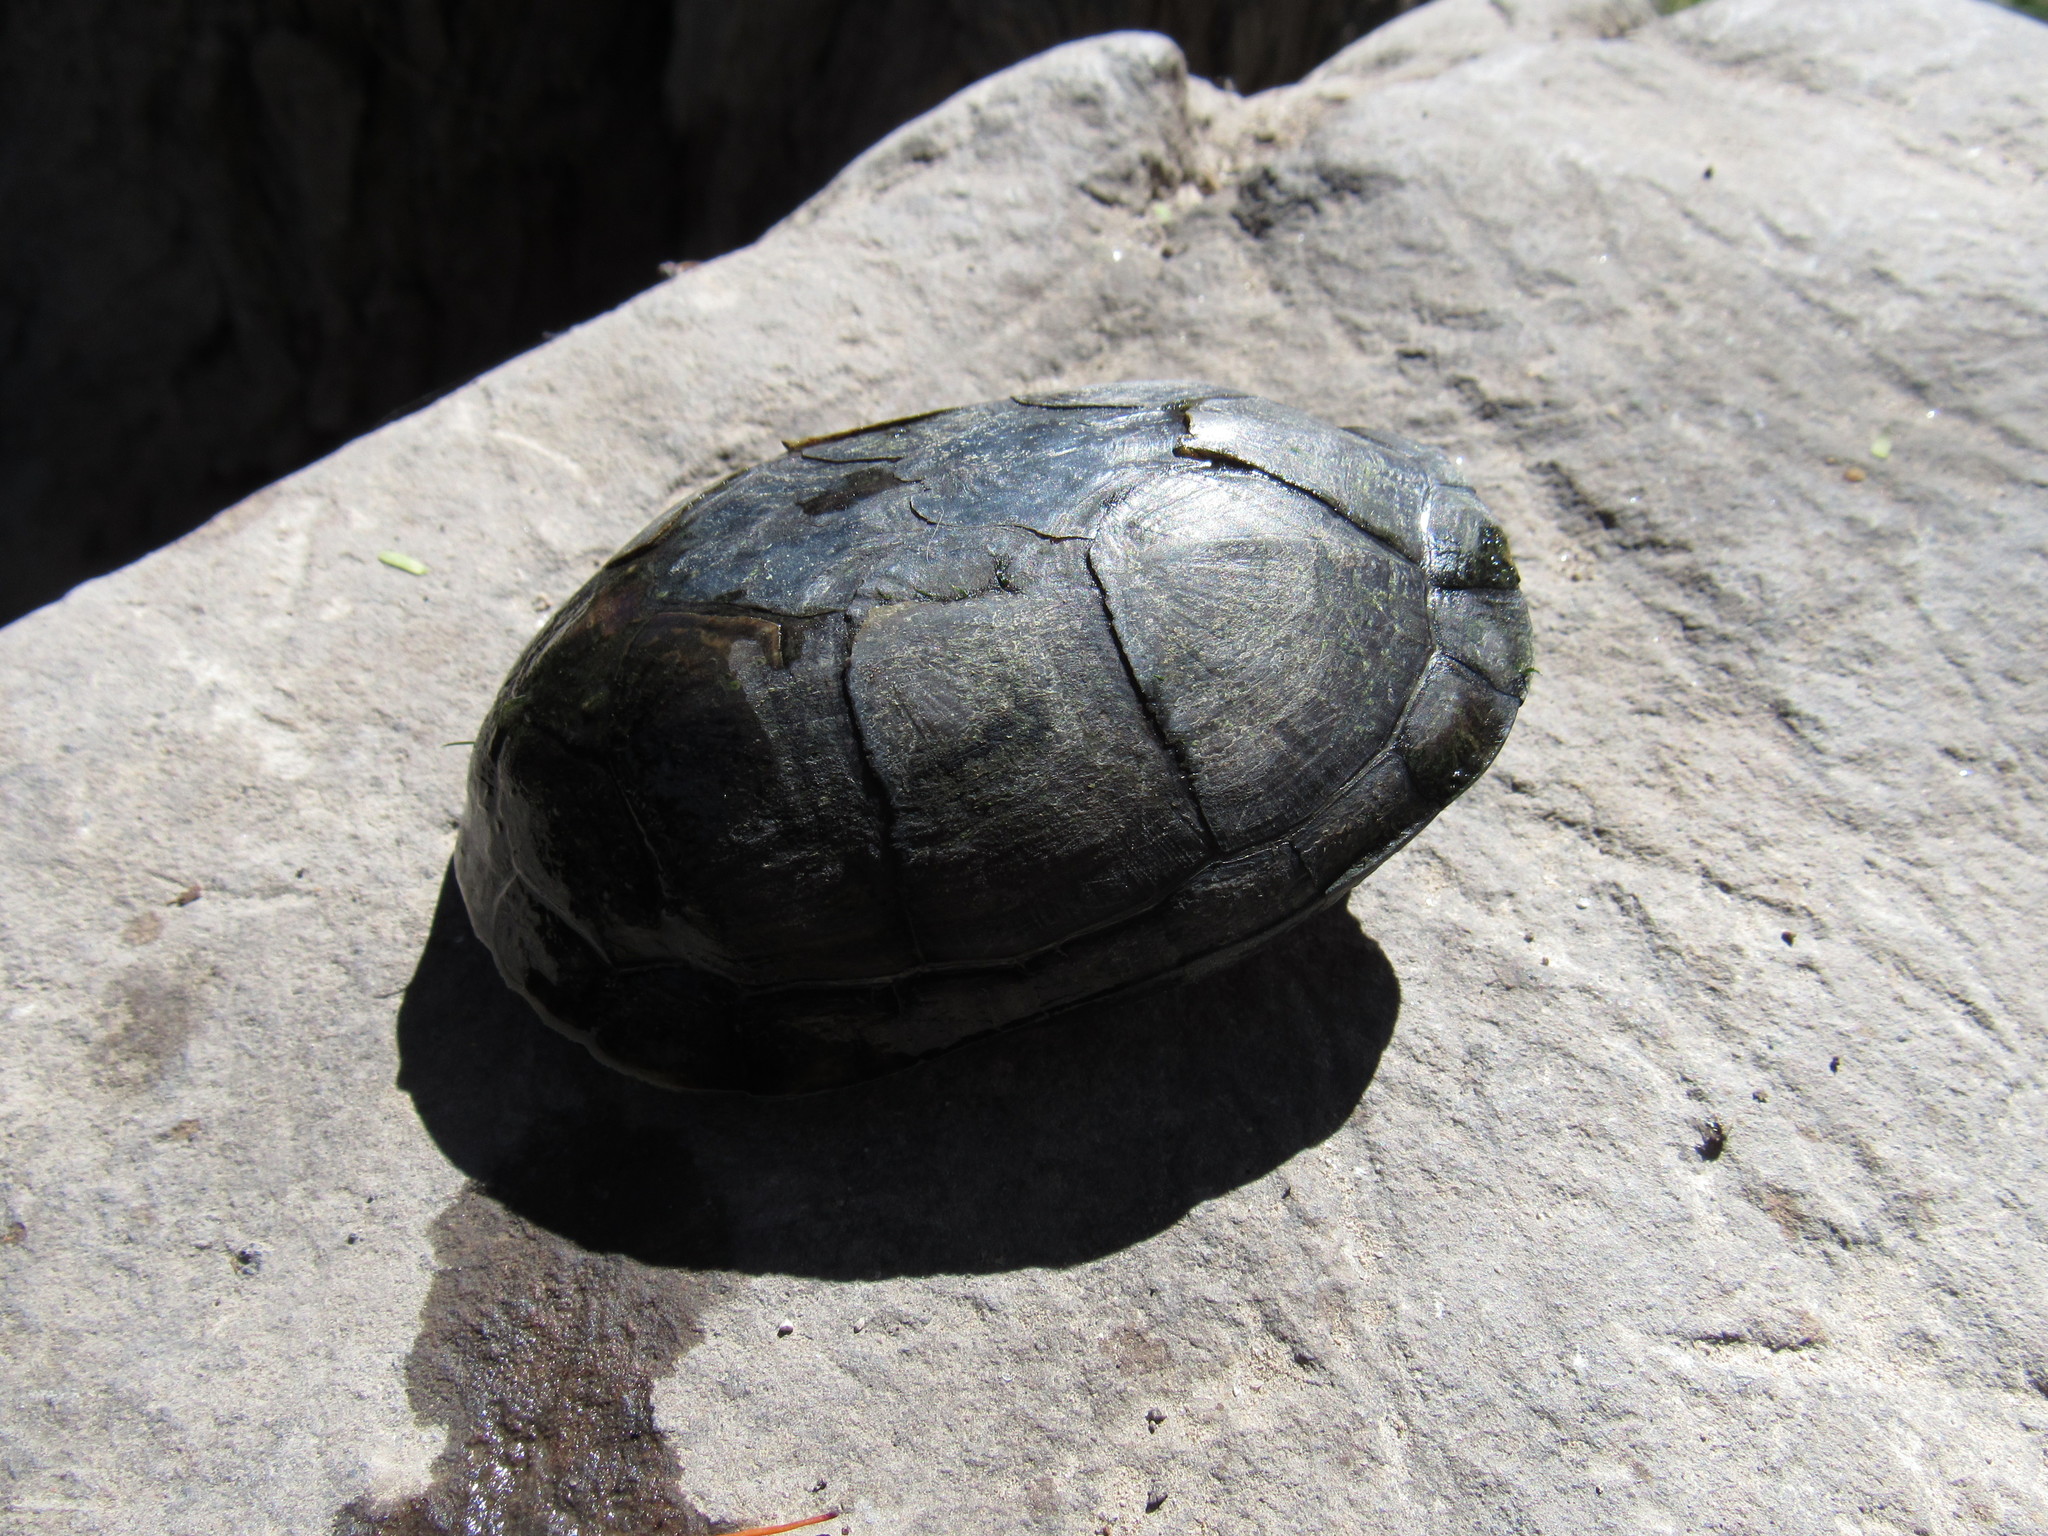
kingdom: Animalia
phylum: Chordata
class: Testudines
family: Kinosternidae
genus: Kinosternon
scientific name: Kinosternon integrum
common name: Mexican mud turtle
